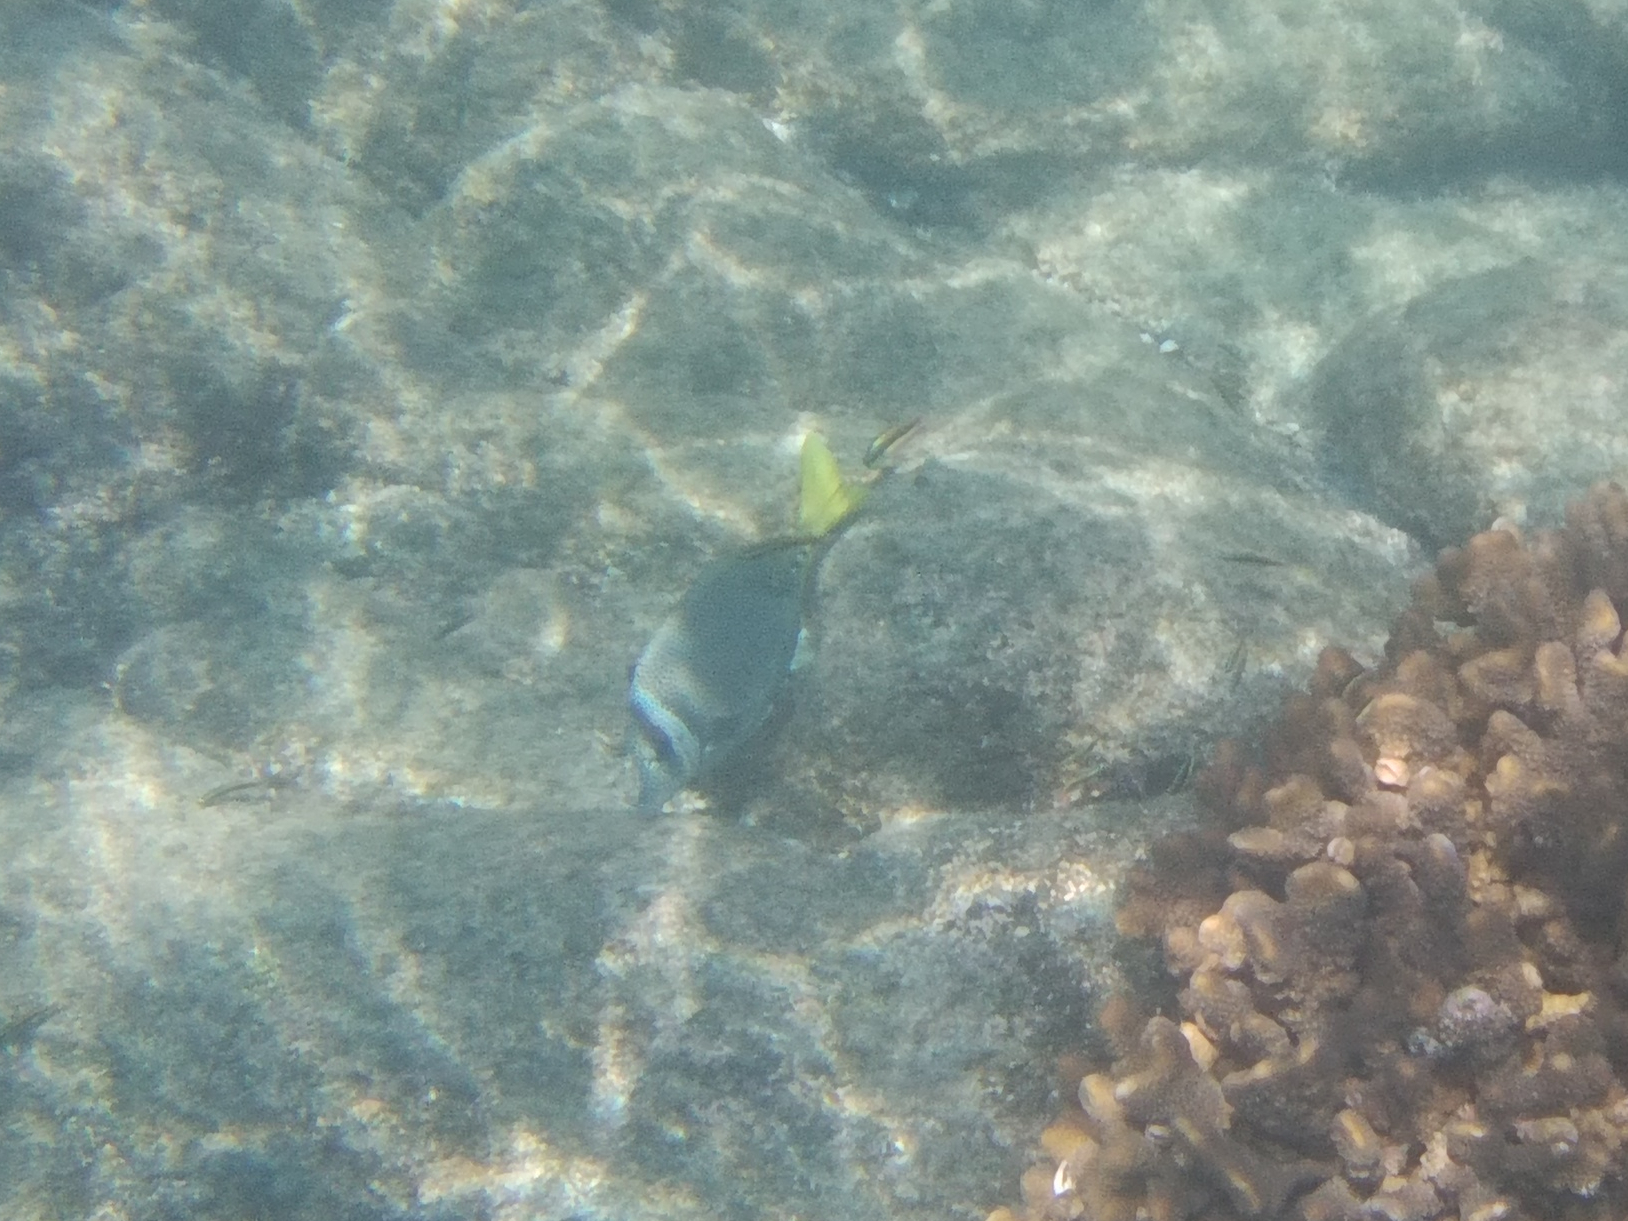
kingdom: Animalia
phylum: Chordata
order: Perciformes
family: Acanthuridae
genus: Prionurus
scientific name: Prionurus laticlavius
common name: Razor surgeonfish
